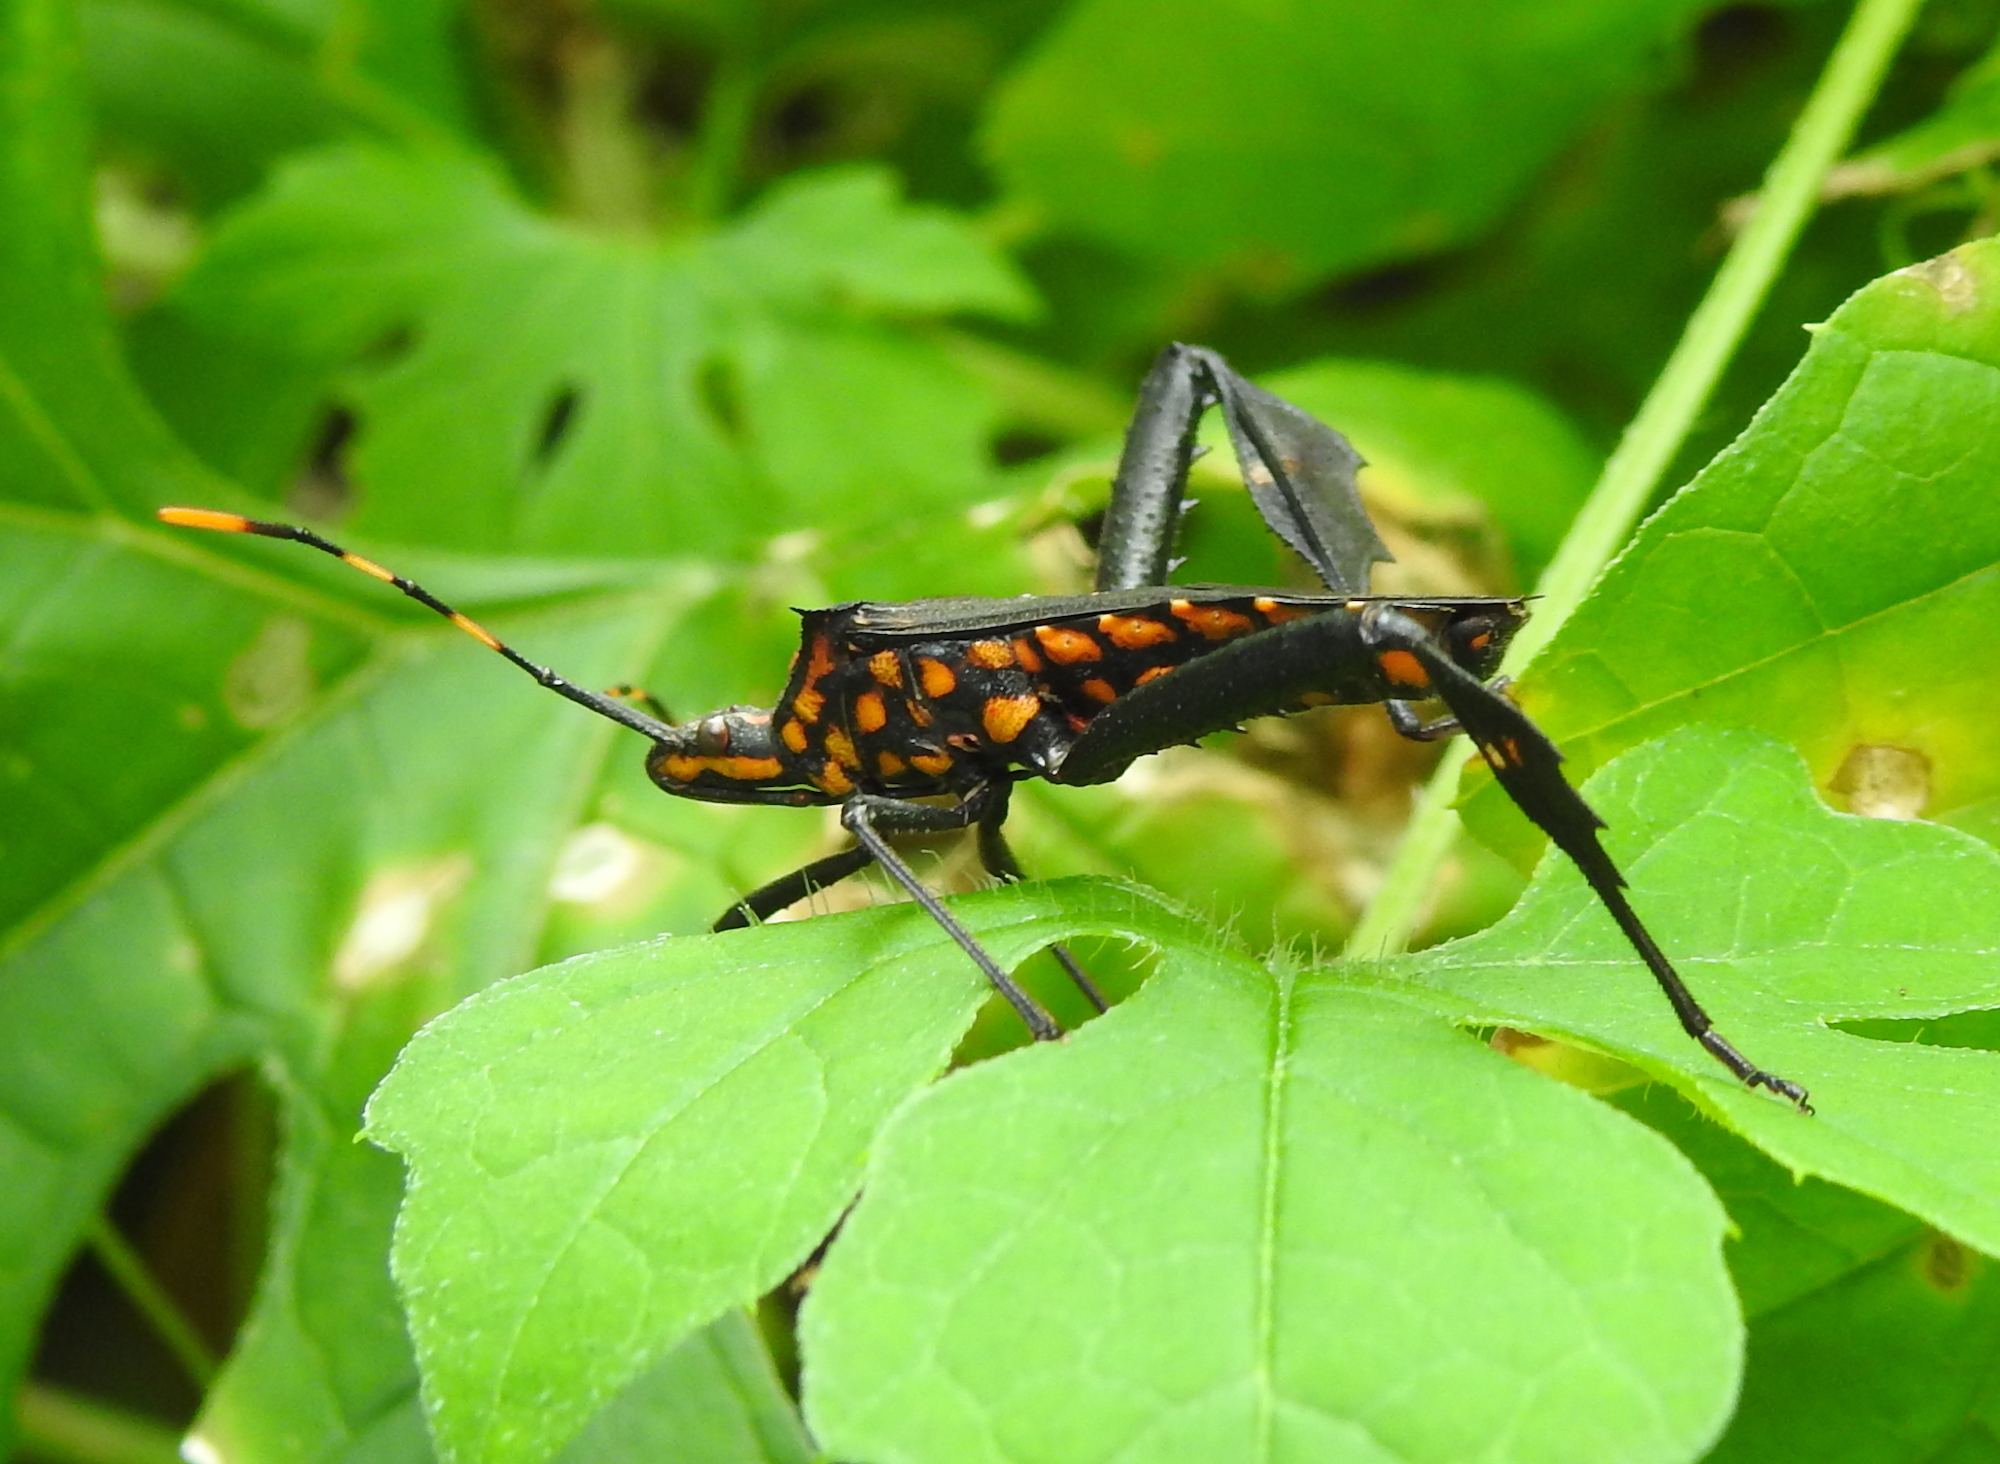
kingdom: Animalia
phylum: Arthropoda
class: Insecta
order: Hemiptera
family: Coreidae
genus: Leptoglossus
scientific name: Leptoglossus gonagra
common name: Citron bug
